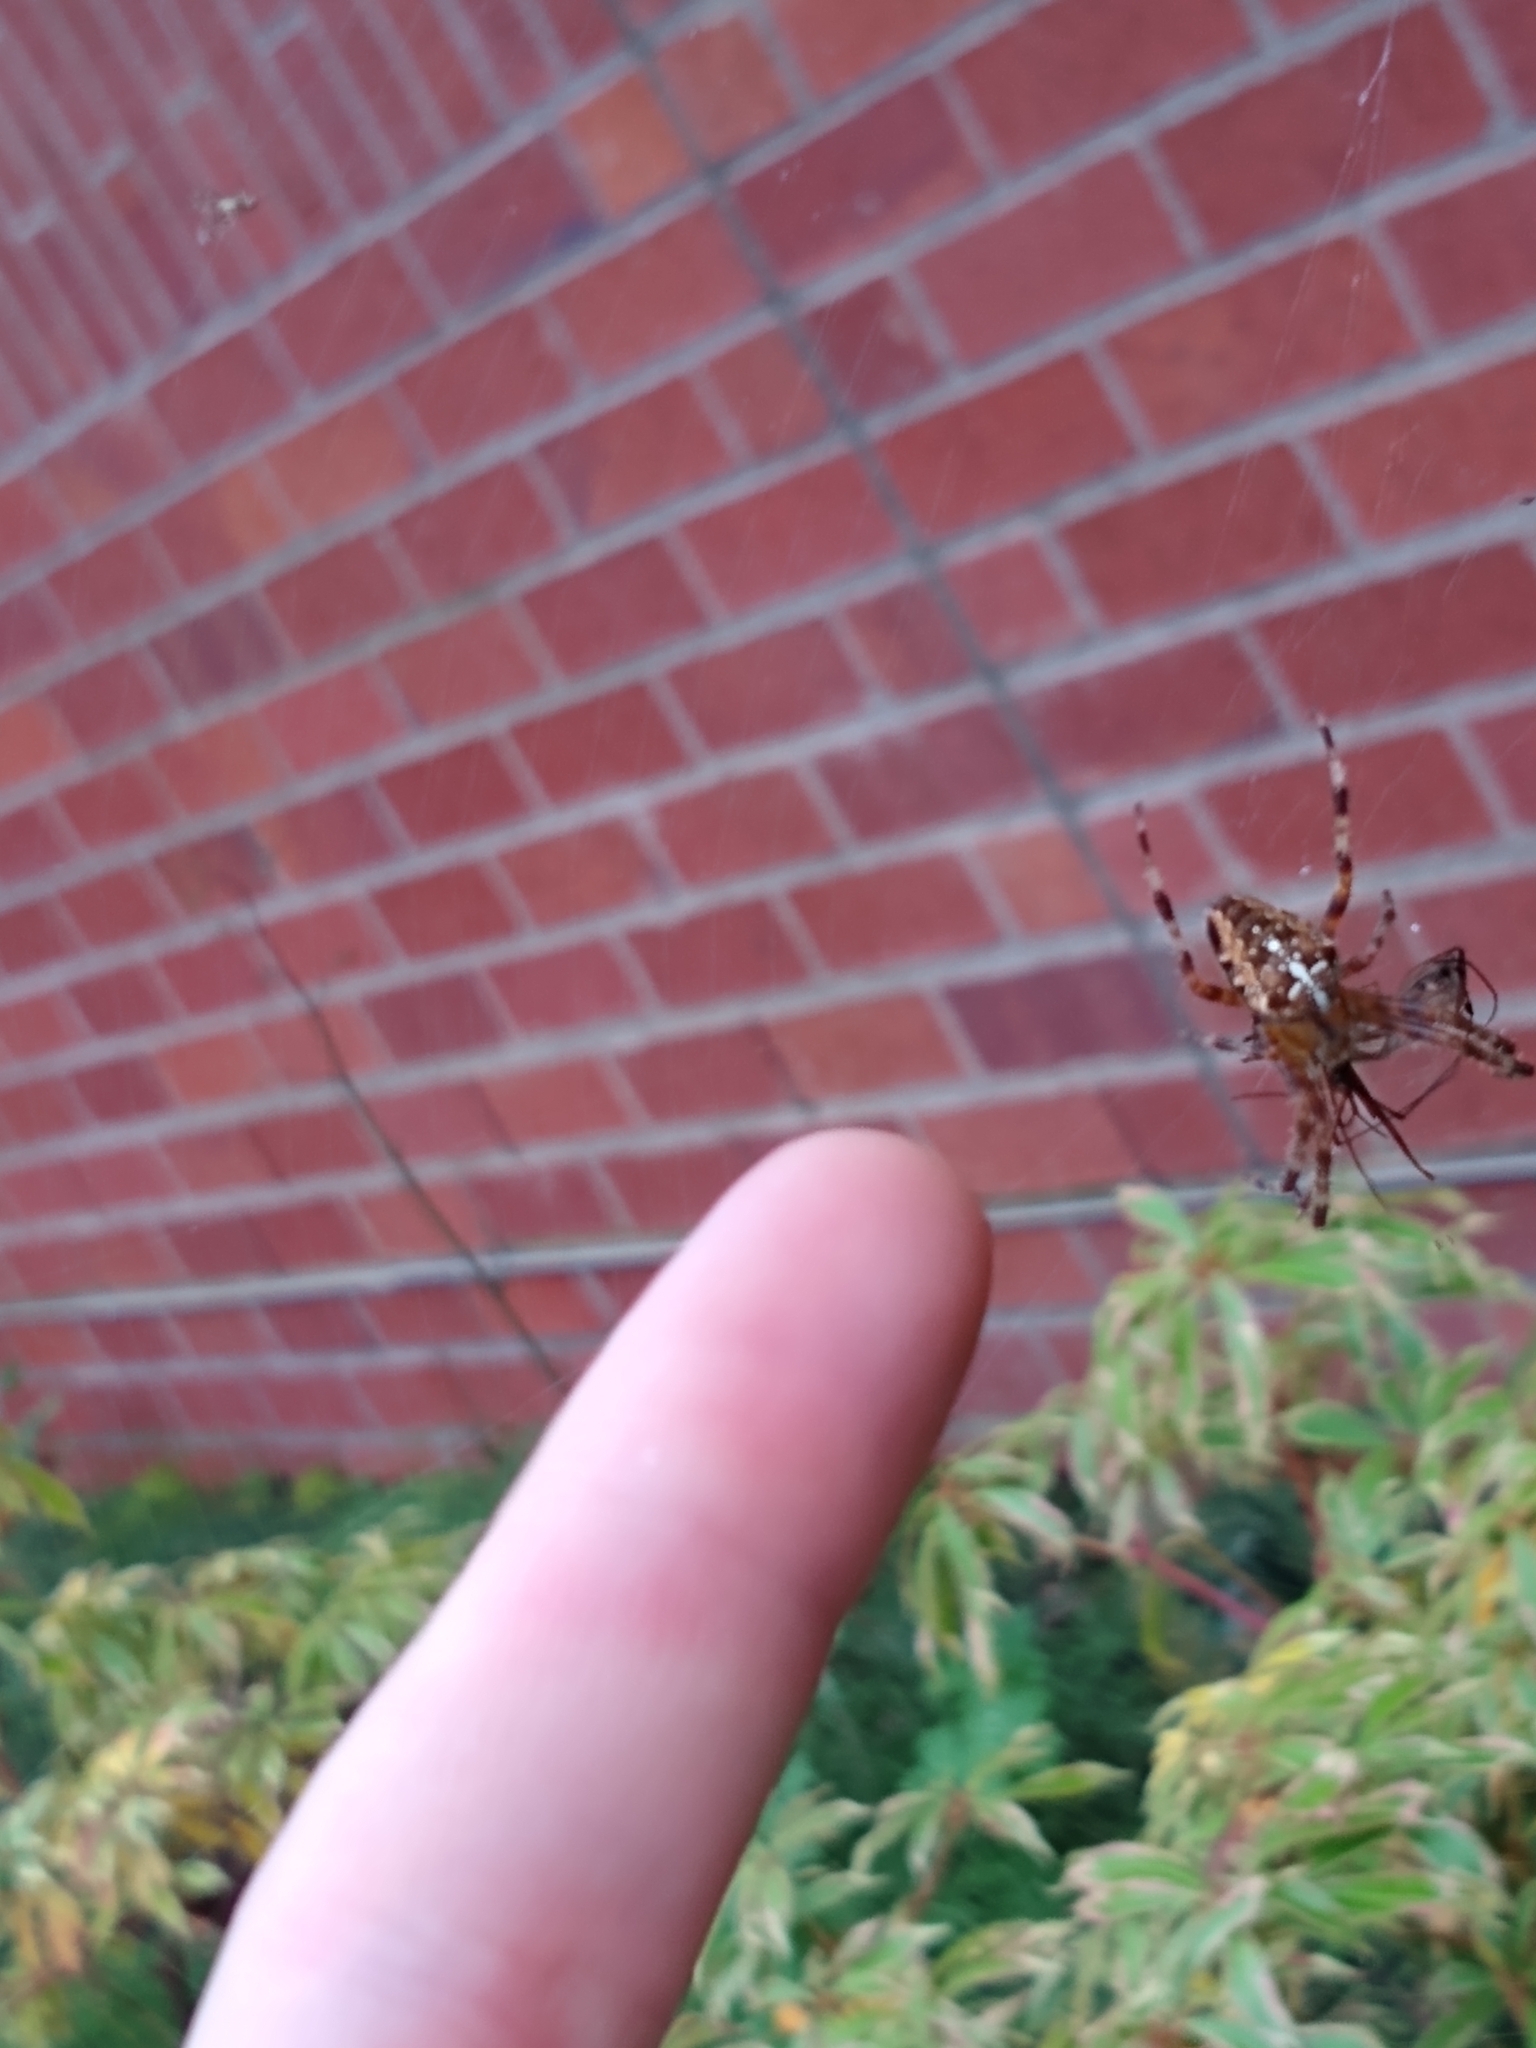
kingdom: Animalia
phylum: Arthropoda
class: Arachnida
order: Araneae
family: Araneidae
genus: Araneus
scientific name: Araneus diadematus
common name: Cross orbweaver
